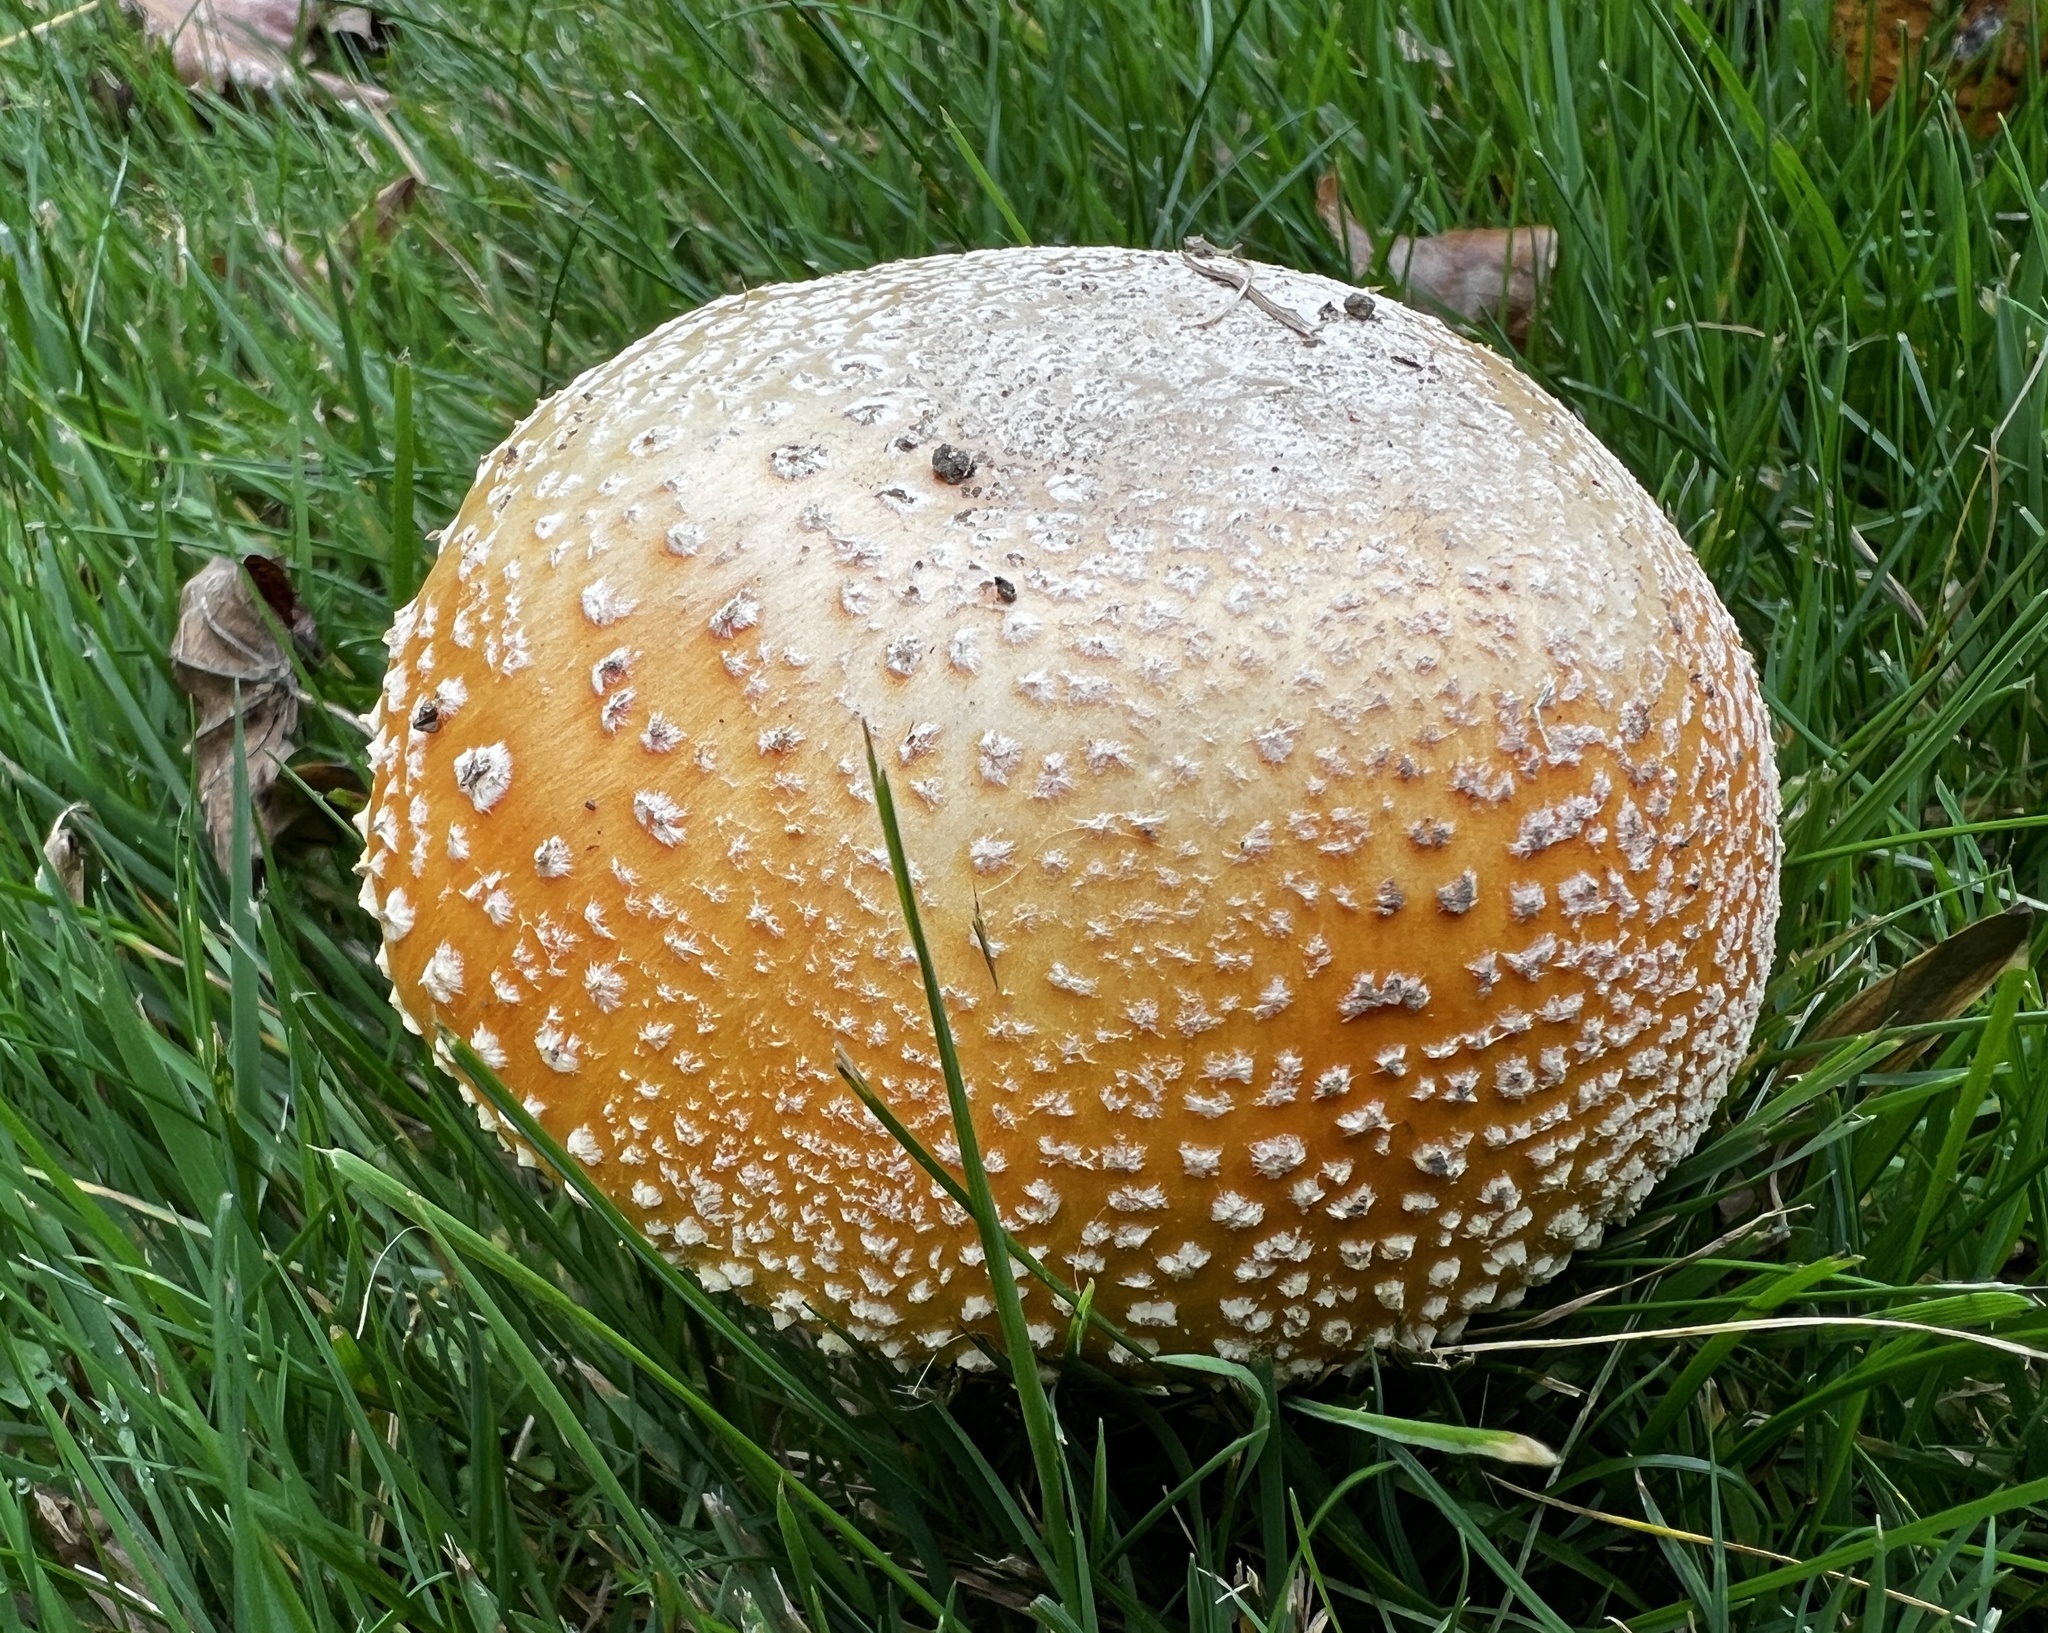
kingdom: Fungi
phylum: Basidiomycota
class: Agaricomycetes
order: Agaricales
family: Amanitaceae
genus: Amanita
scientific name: Amanita muscaria
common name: Fly agaric
